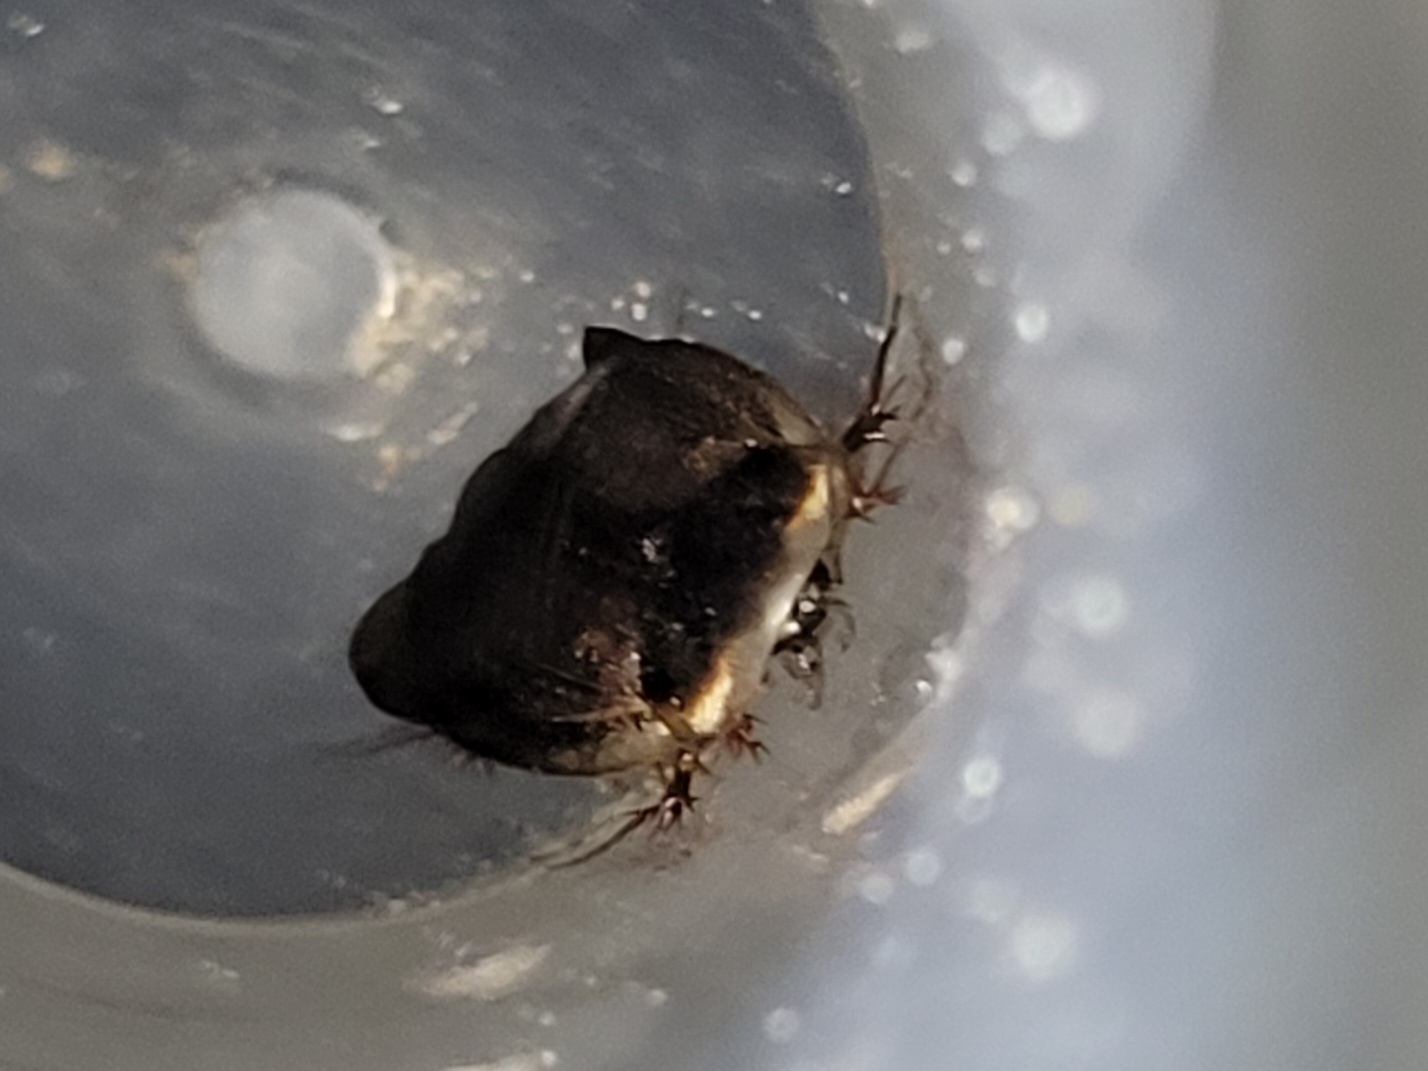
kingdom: Animalia
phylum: Arthropoda
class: Insecta
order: Blattodea
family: Corydiidae
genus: Arenivaga
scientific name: Arenivaga floridensis
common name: Florida sand cockroach
